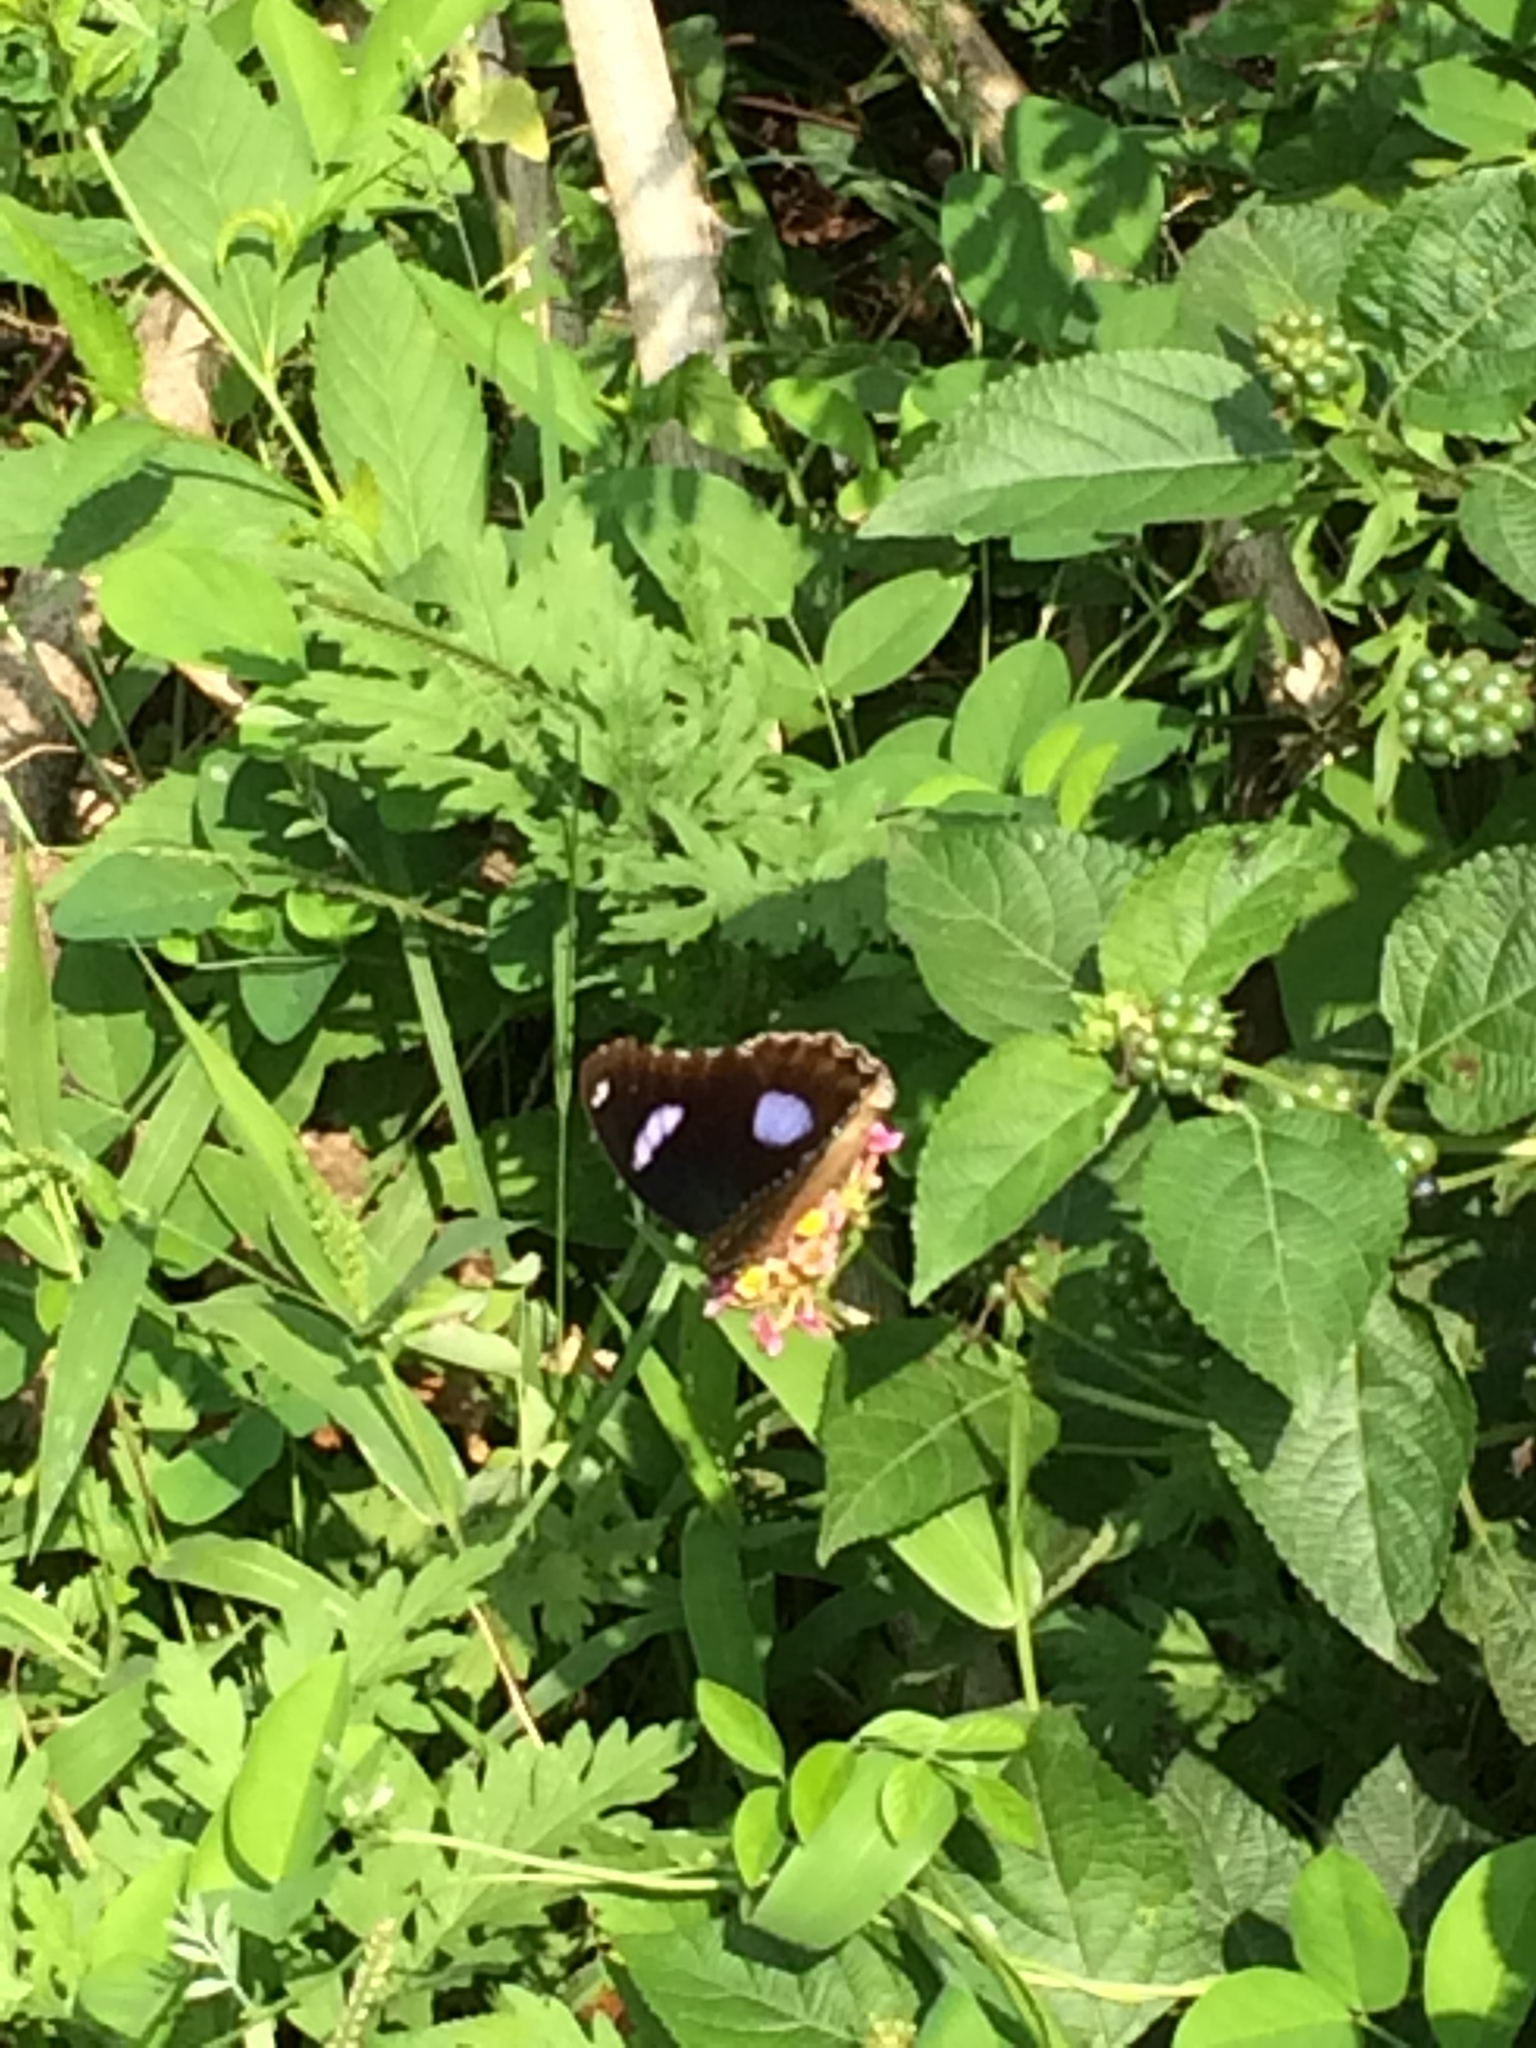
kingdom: Animalia
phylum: Arthropoda
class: Insecta
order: Lepidoptera
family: Nymphalidae
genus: Hypolimnas
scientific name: Hypolimnas bolina
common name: Great eggfly
